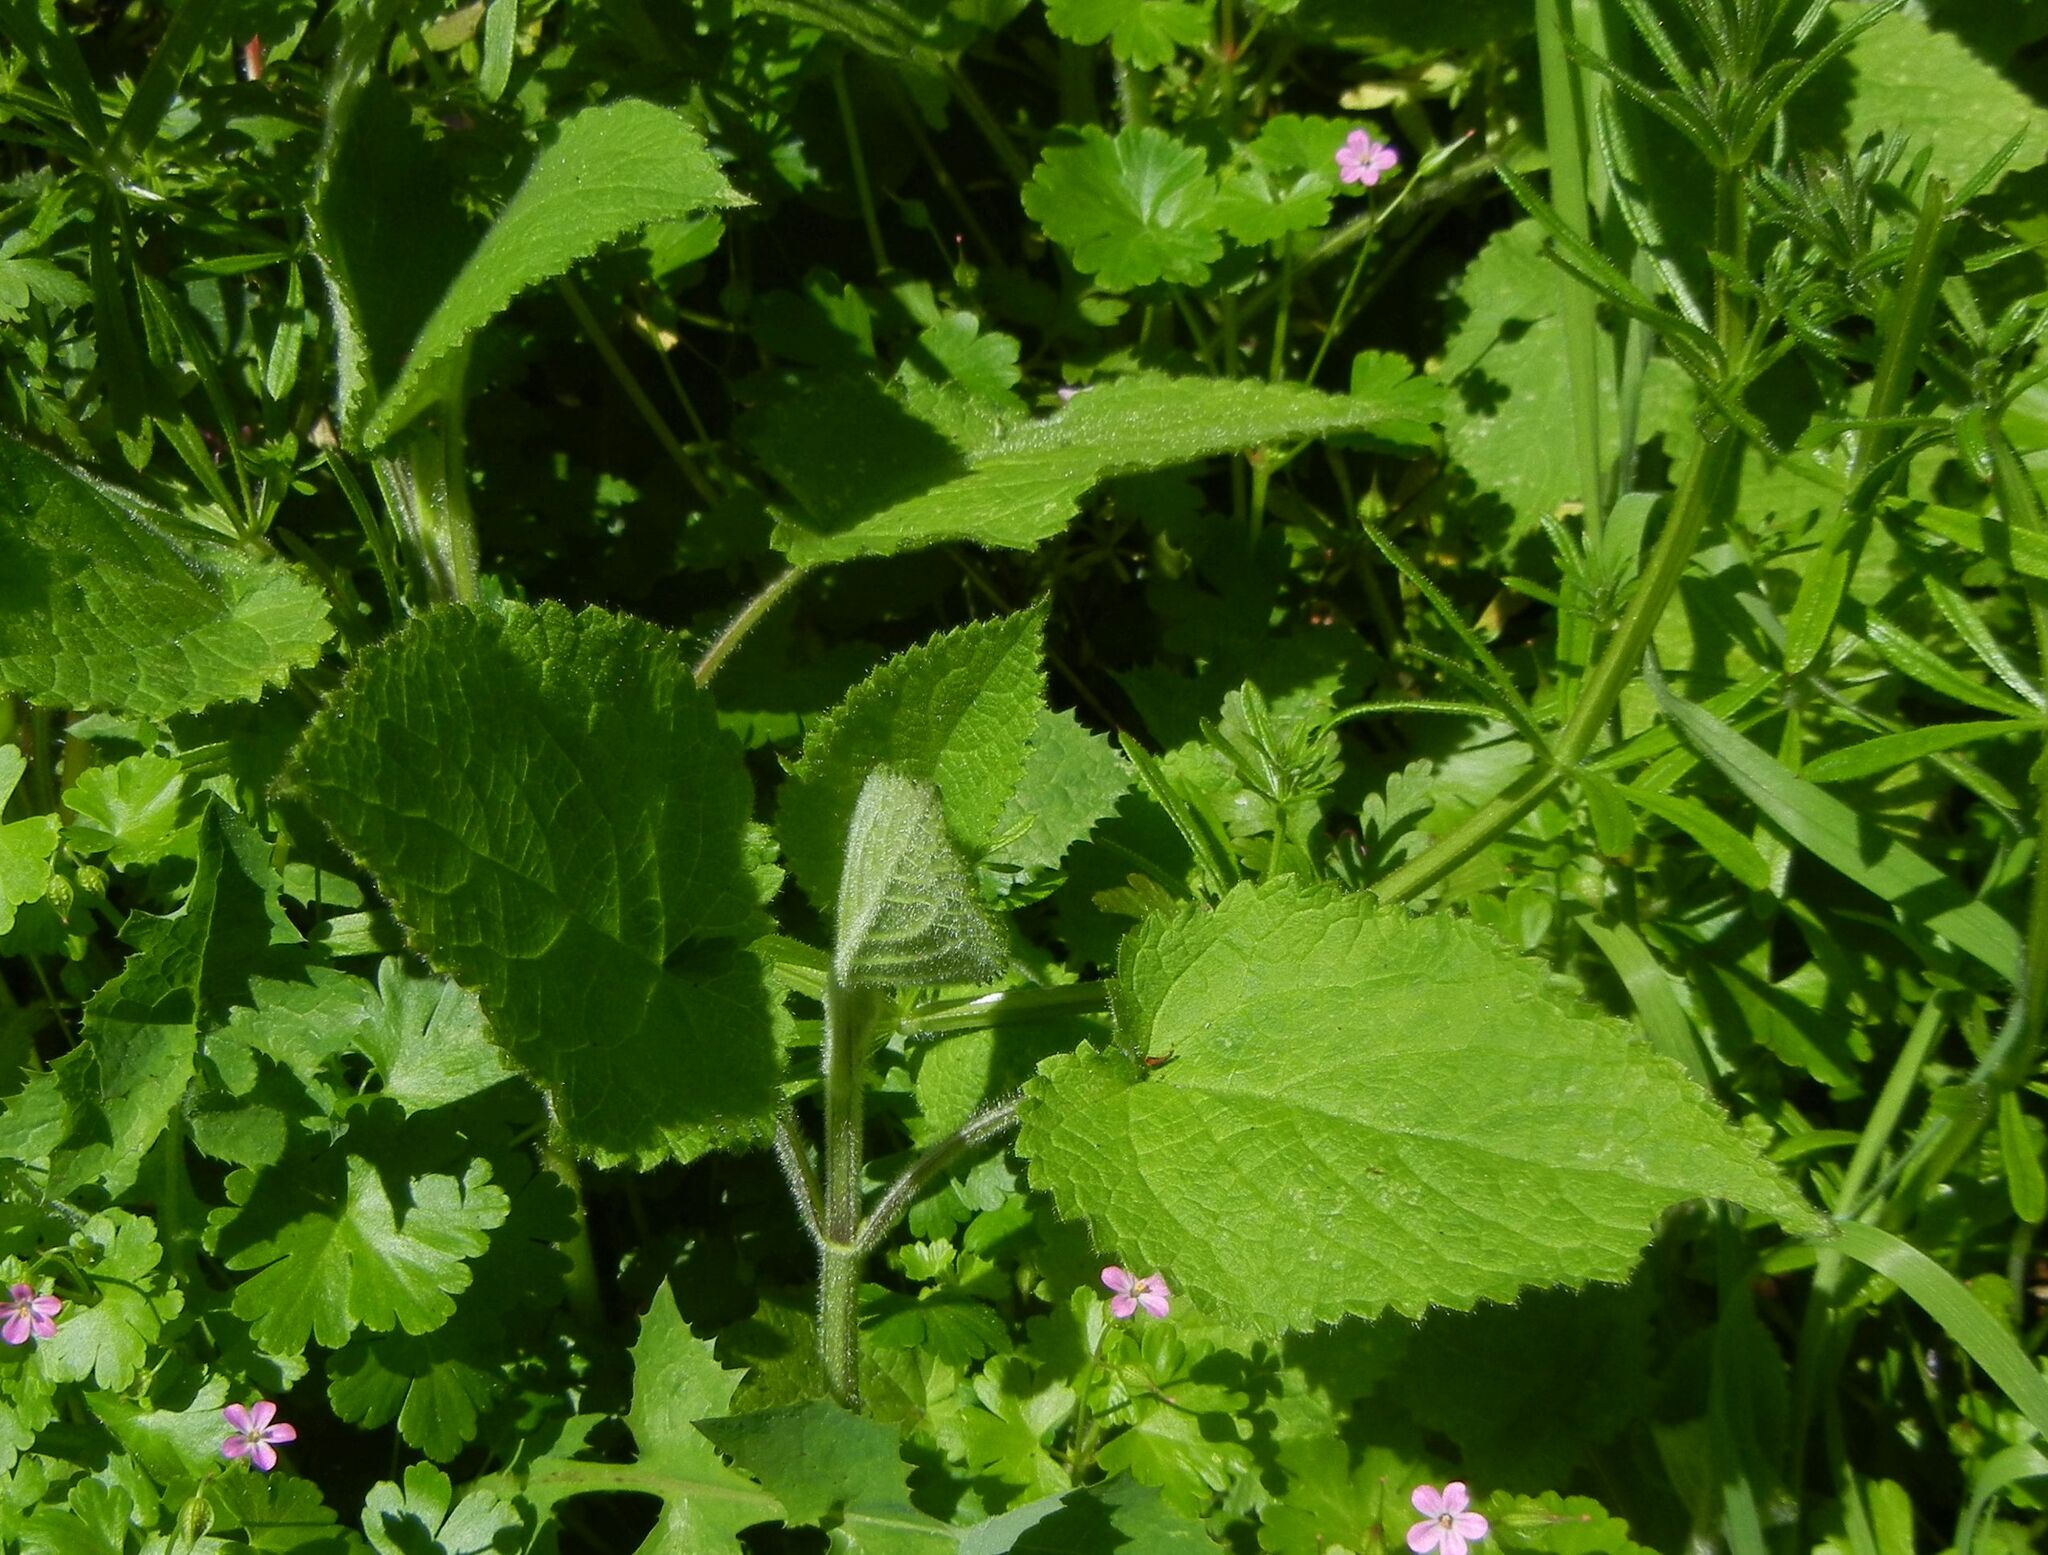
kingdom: Plantae
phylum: Tracheophyta
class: Magnoliopsida
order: Lamiales
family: Lamiaceae
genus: Stachys
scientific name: Stachys sylvatica
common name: Hedge woundwort
